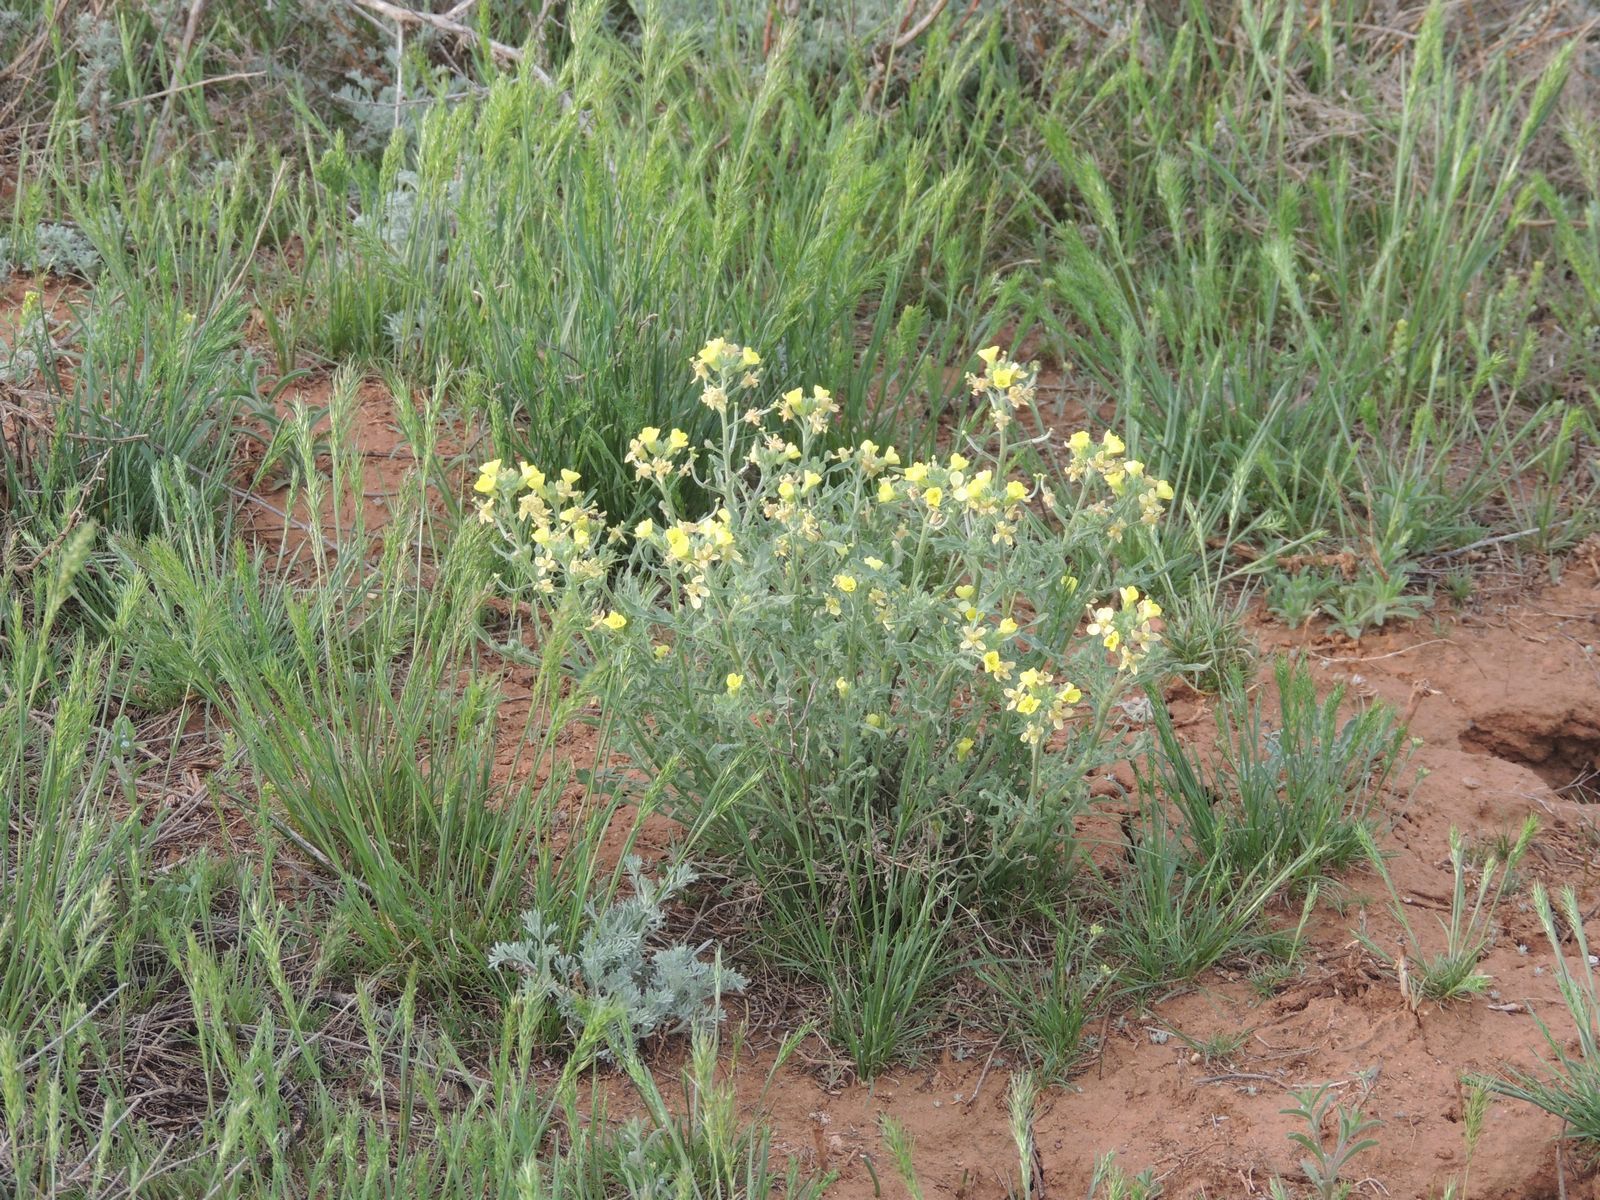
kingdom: Plantae
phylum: Tracheophyta
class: Magnoliopsida
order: Brassicales
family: Brassicaceae
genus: Sterigmostemum
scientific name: Sterigmostemum caspicum
